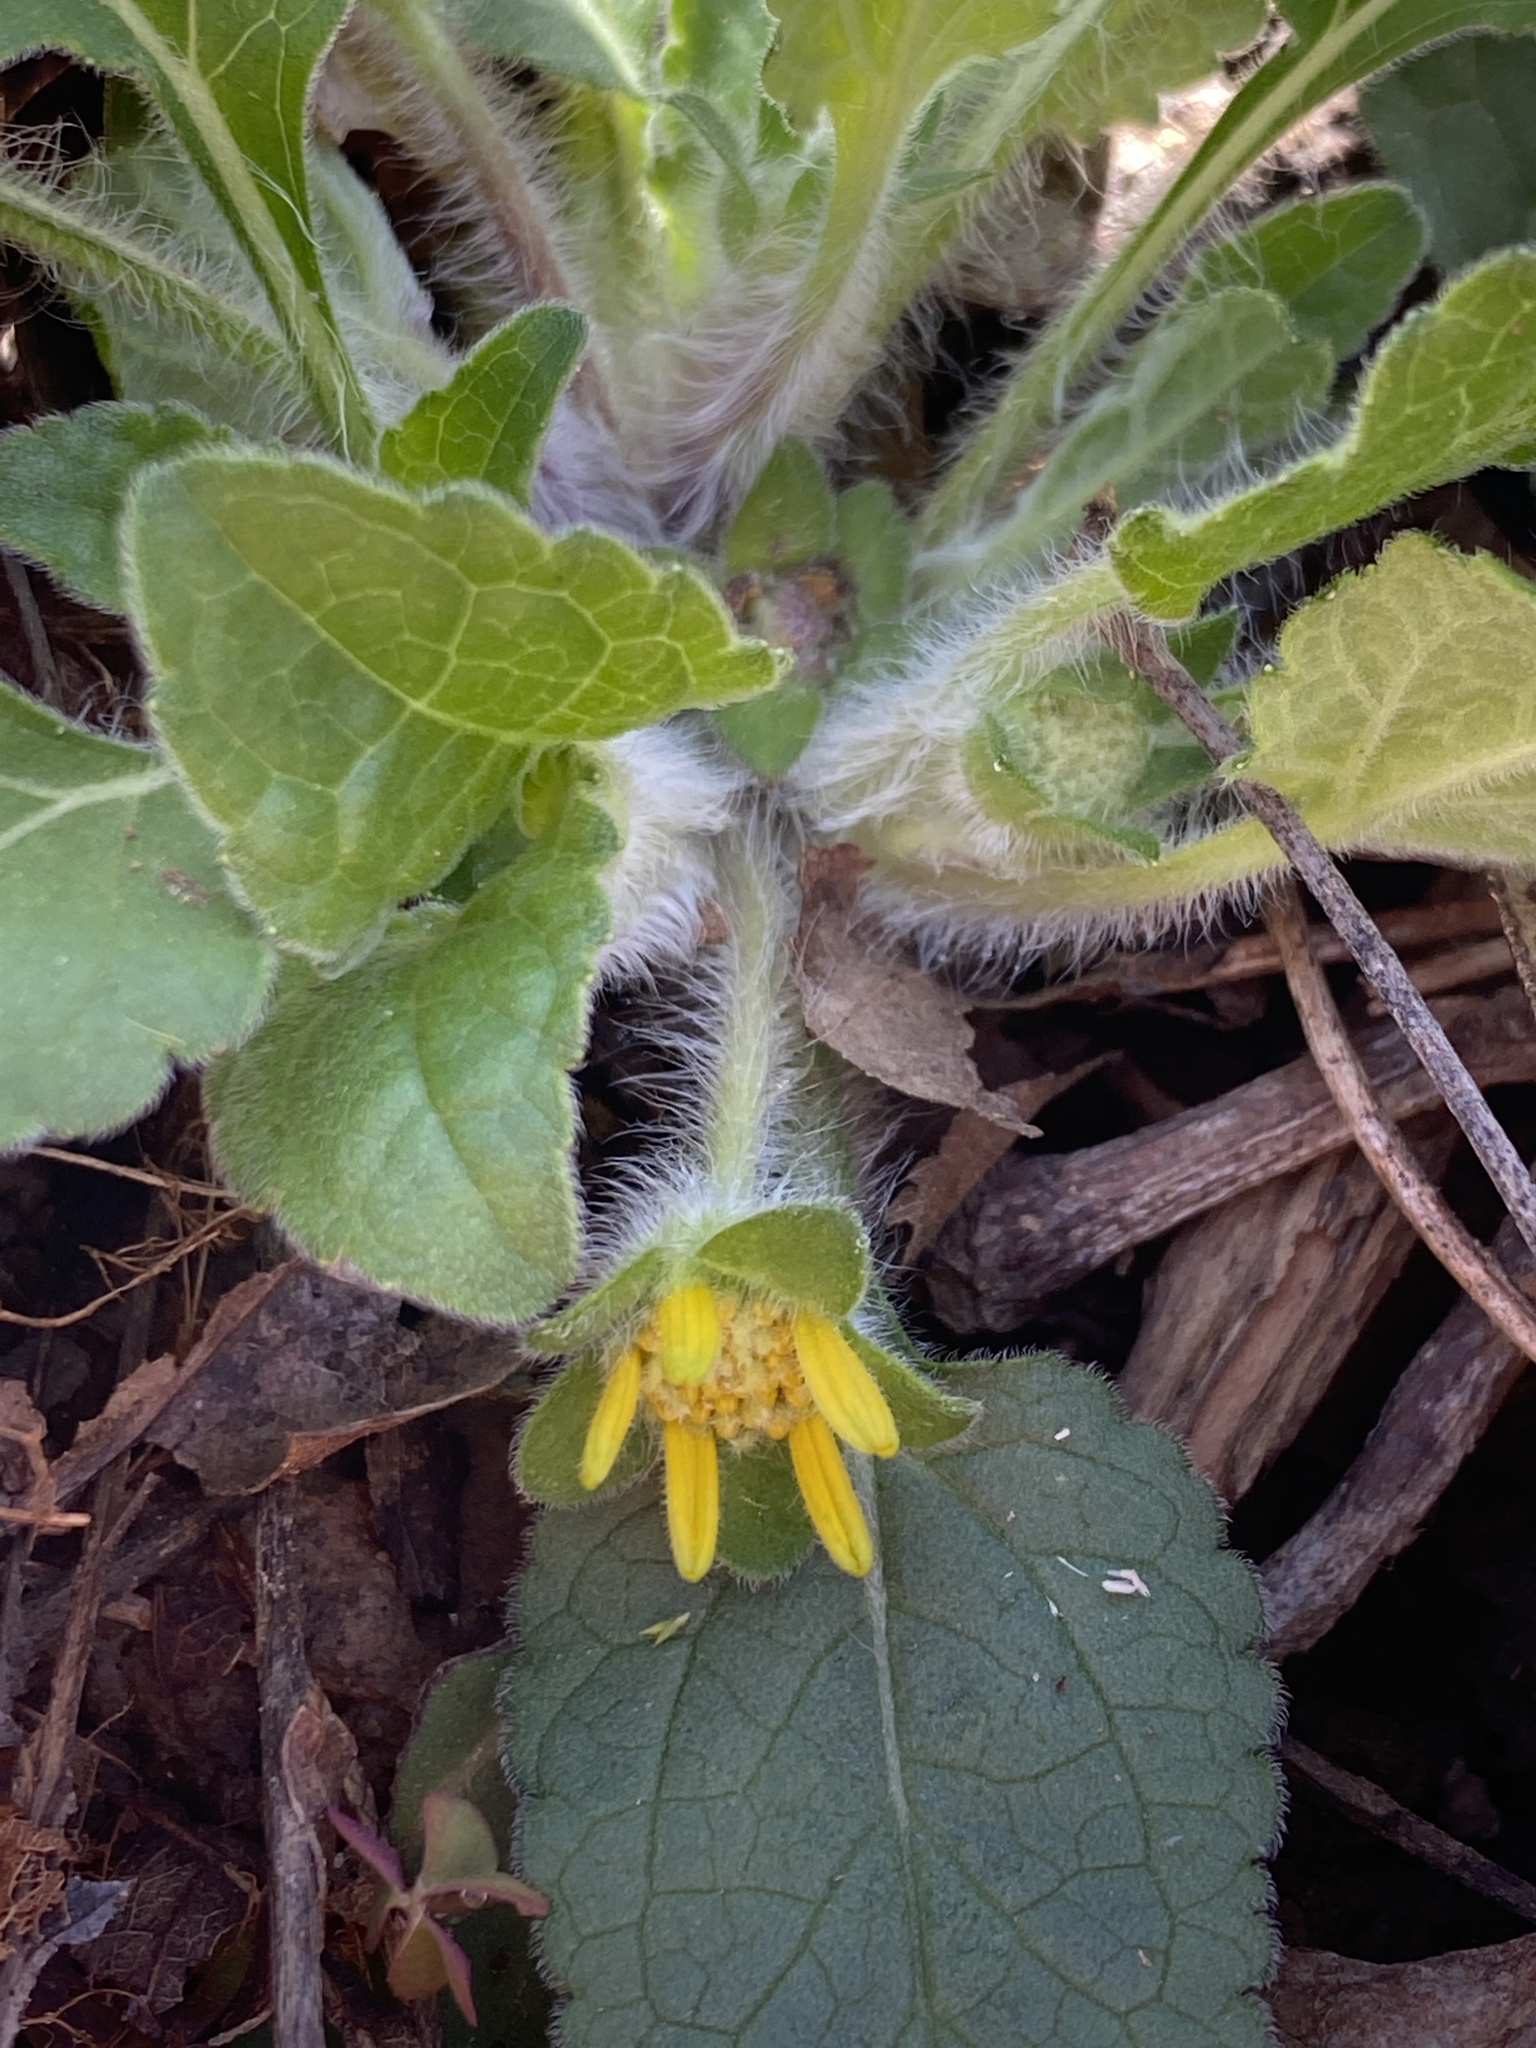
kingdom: Plantae
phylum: Tracheophyta
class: Magnoliopsida
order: Asterales
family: Asteraceae
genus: Chrysogonum
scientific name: Chrysogonum virginianum
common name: Golden-knee
